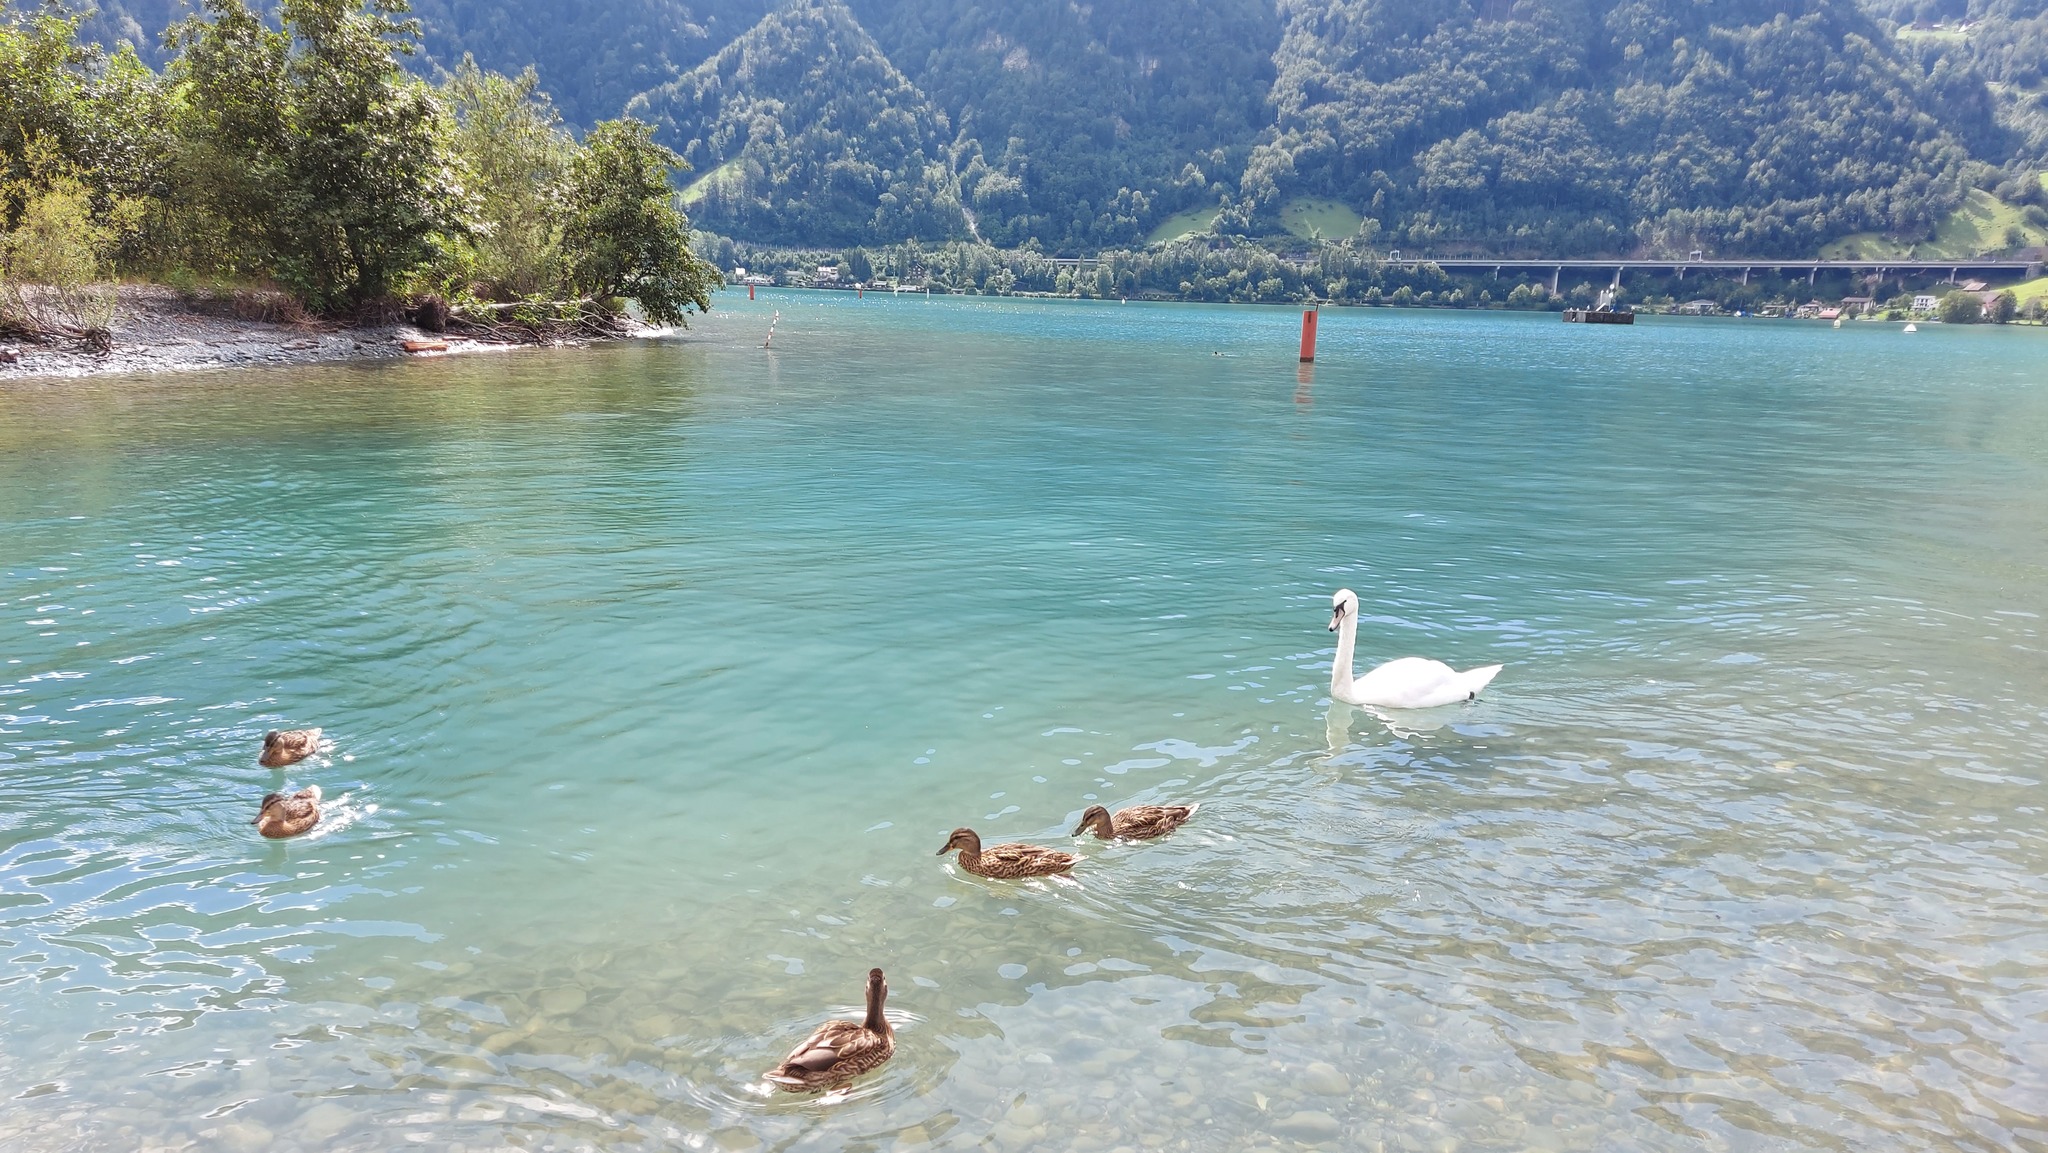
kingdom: Animalia
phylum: Chordata
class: Aves
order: Anseriformes
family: Anatidae
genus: Anas
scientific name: Anas platyrhynchos
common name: Mallard
